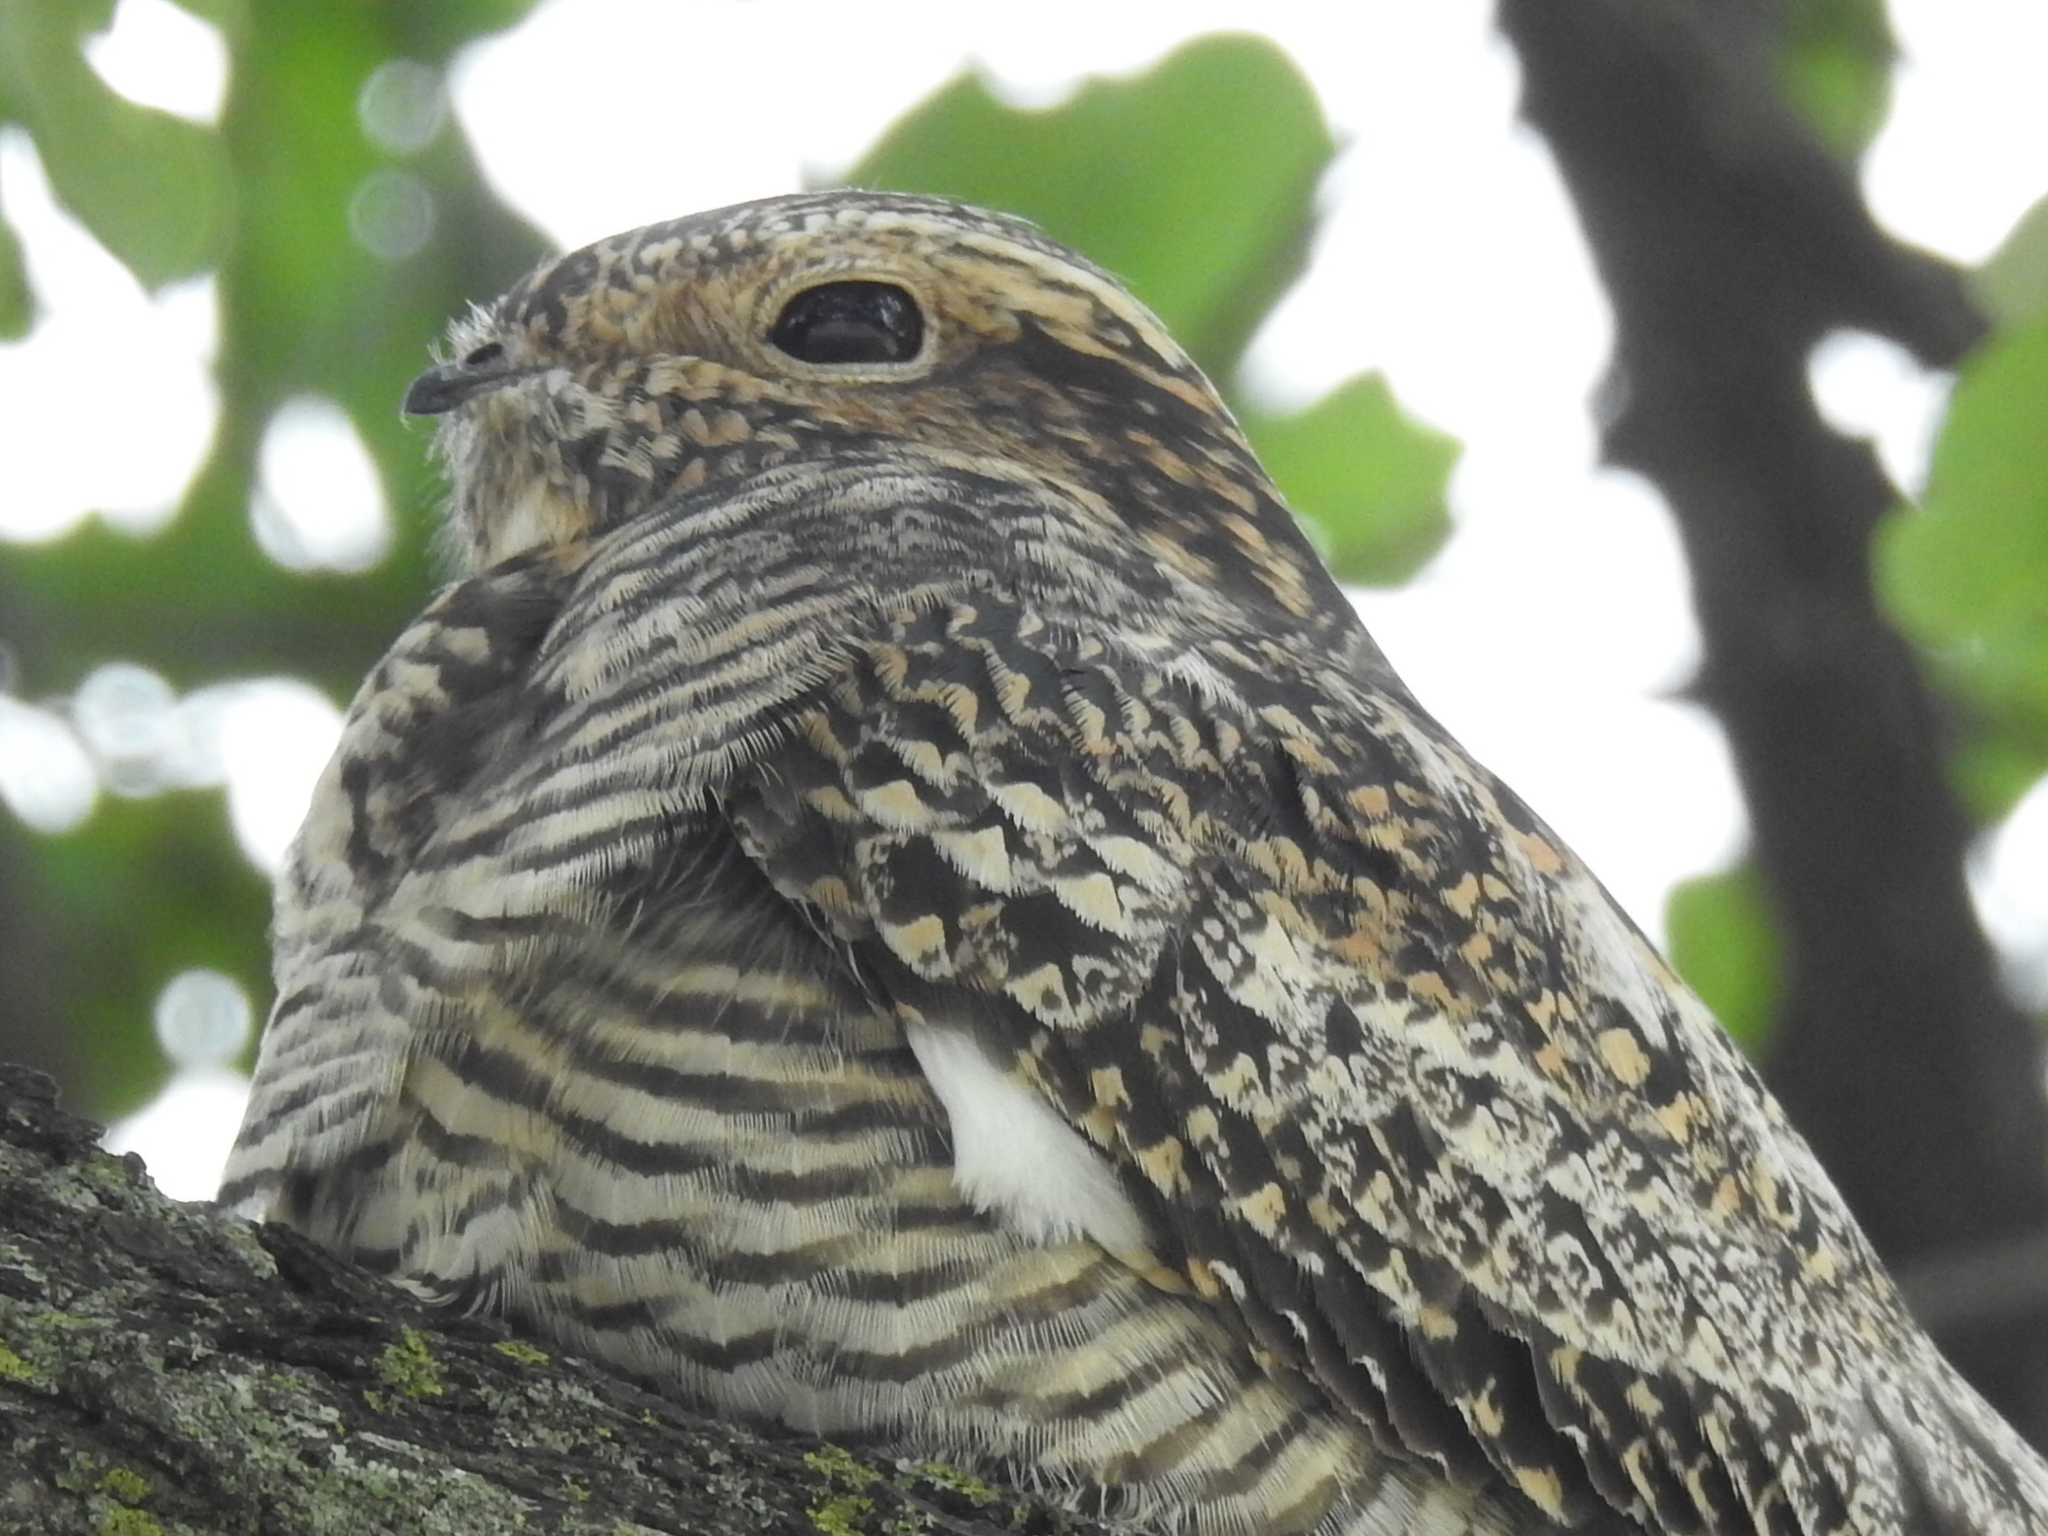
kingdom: Animalia
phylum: Chordata
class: Aves
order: Caprimulgiformes
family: Caprimulgidae
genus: Chordeiles
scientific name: Chordeiles minor
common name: Common nighthawk
